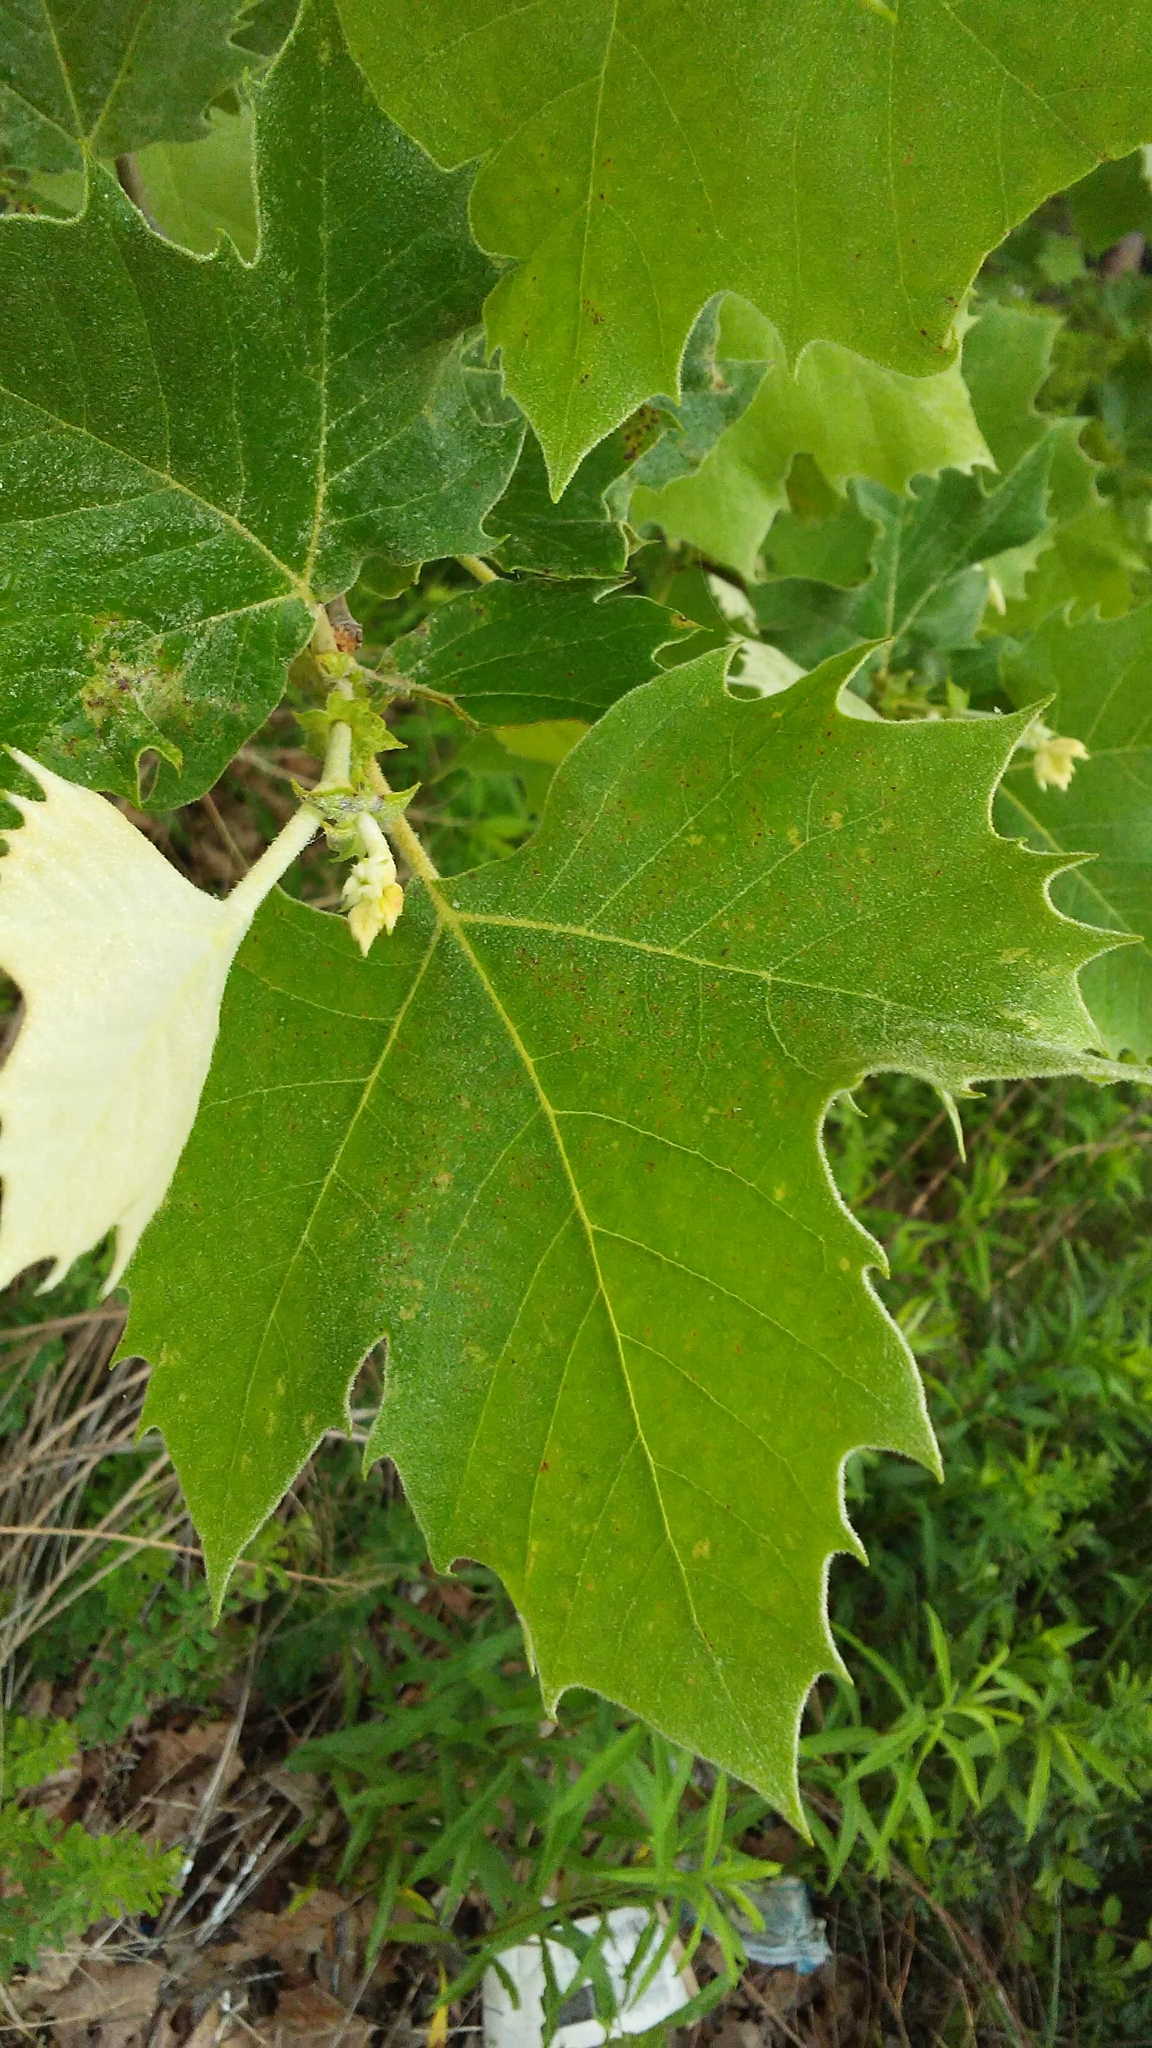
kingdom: Plantae
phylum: Tracheophyta
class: Magnoliopsida
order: Proteales
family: Platanaceae
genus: Platanus
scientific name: Platanus occidentalis
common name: American sycamore
